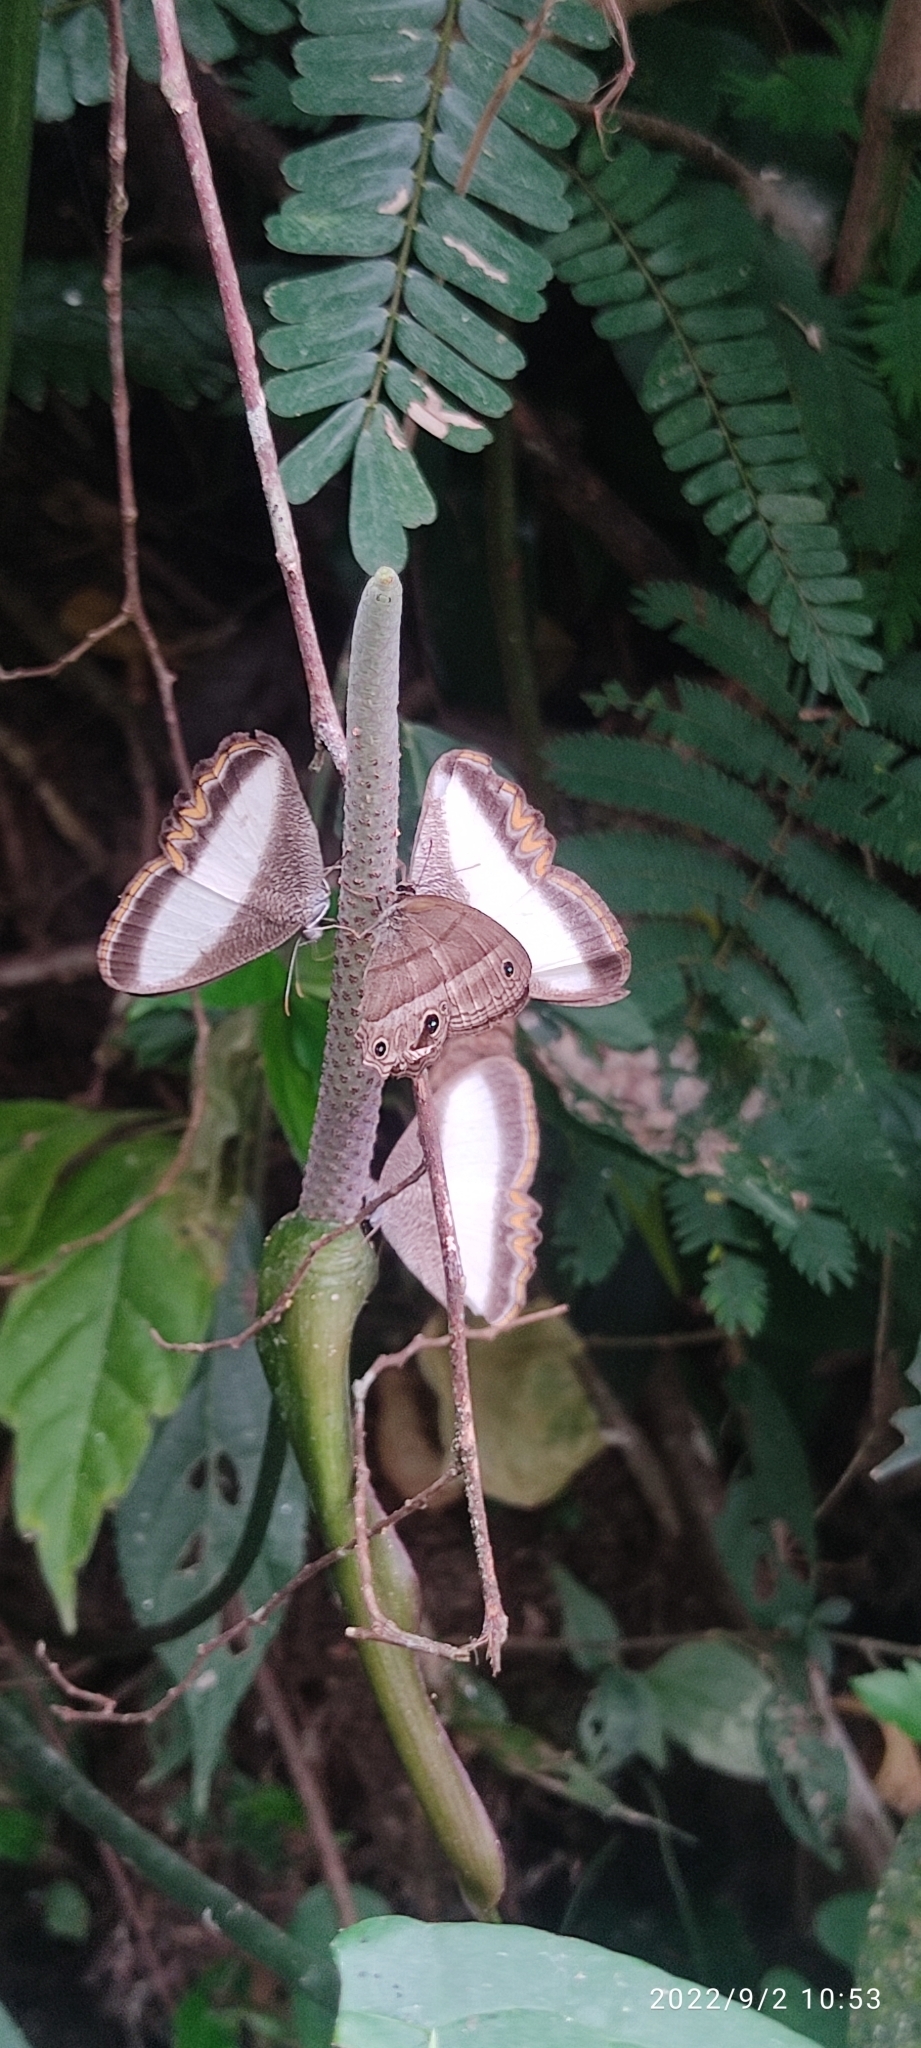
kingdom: Animalia
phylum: Arthropoda
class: Insecta
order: Lepidoptera
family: Nymphalidae
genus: Oressinoma
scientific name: Oressinoma typhla
